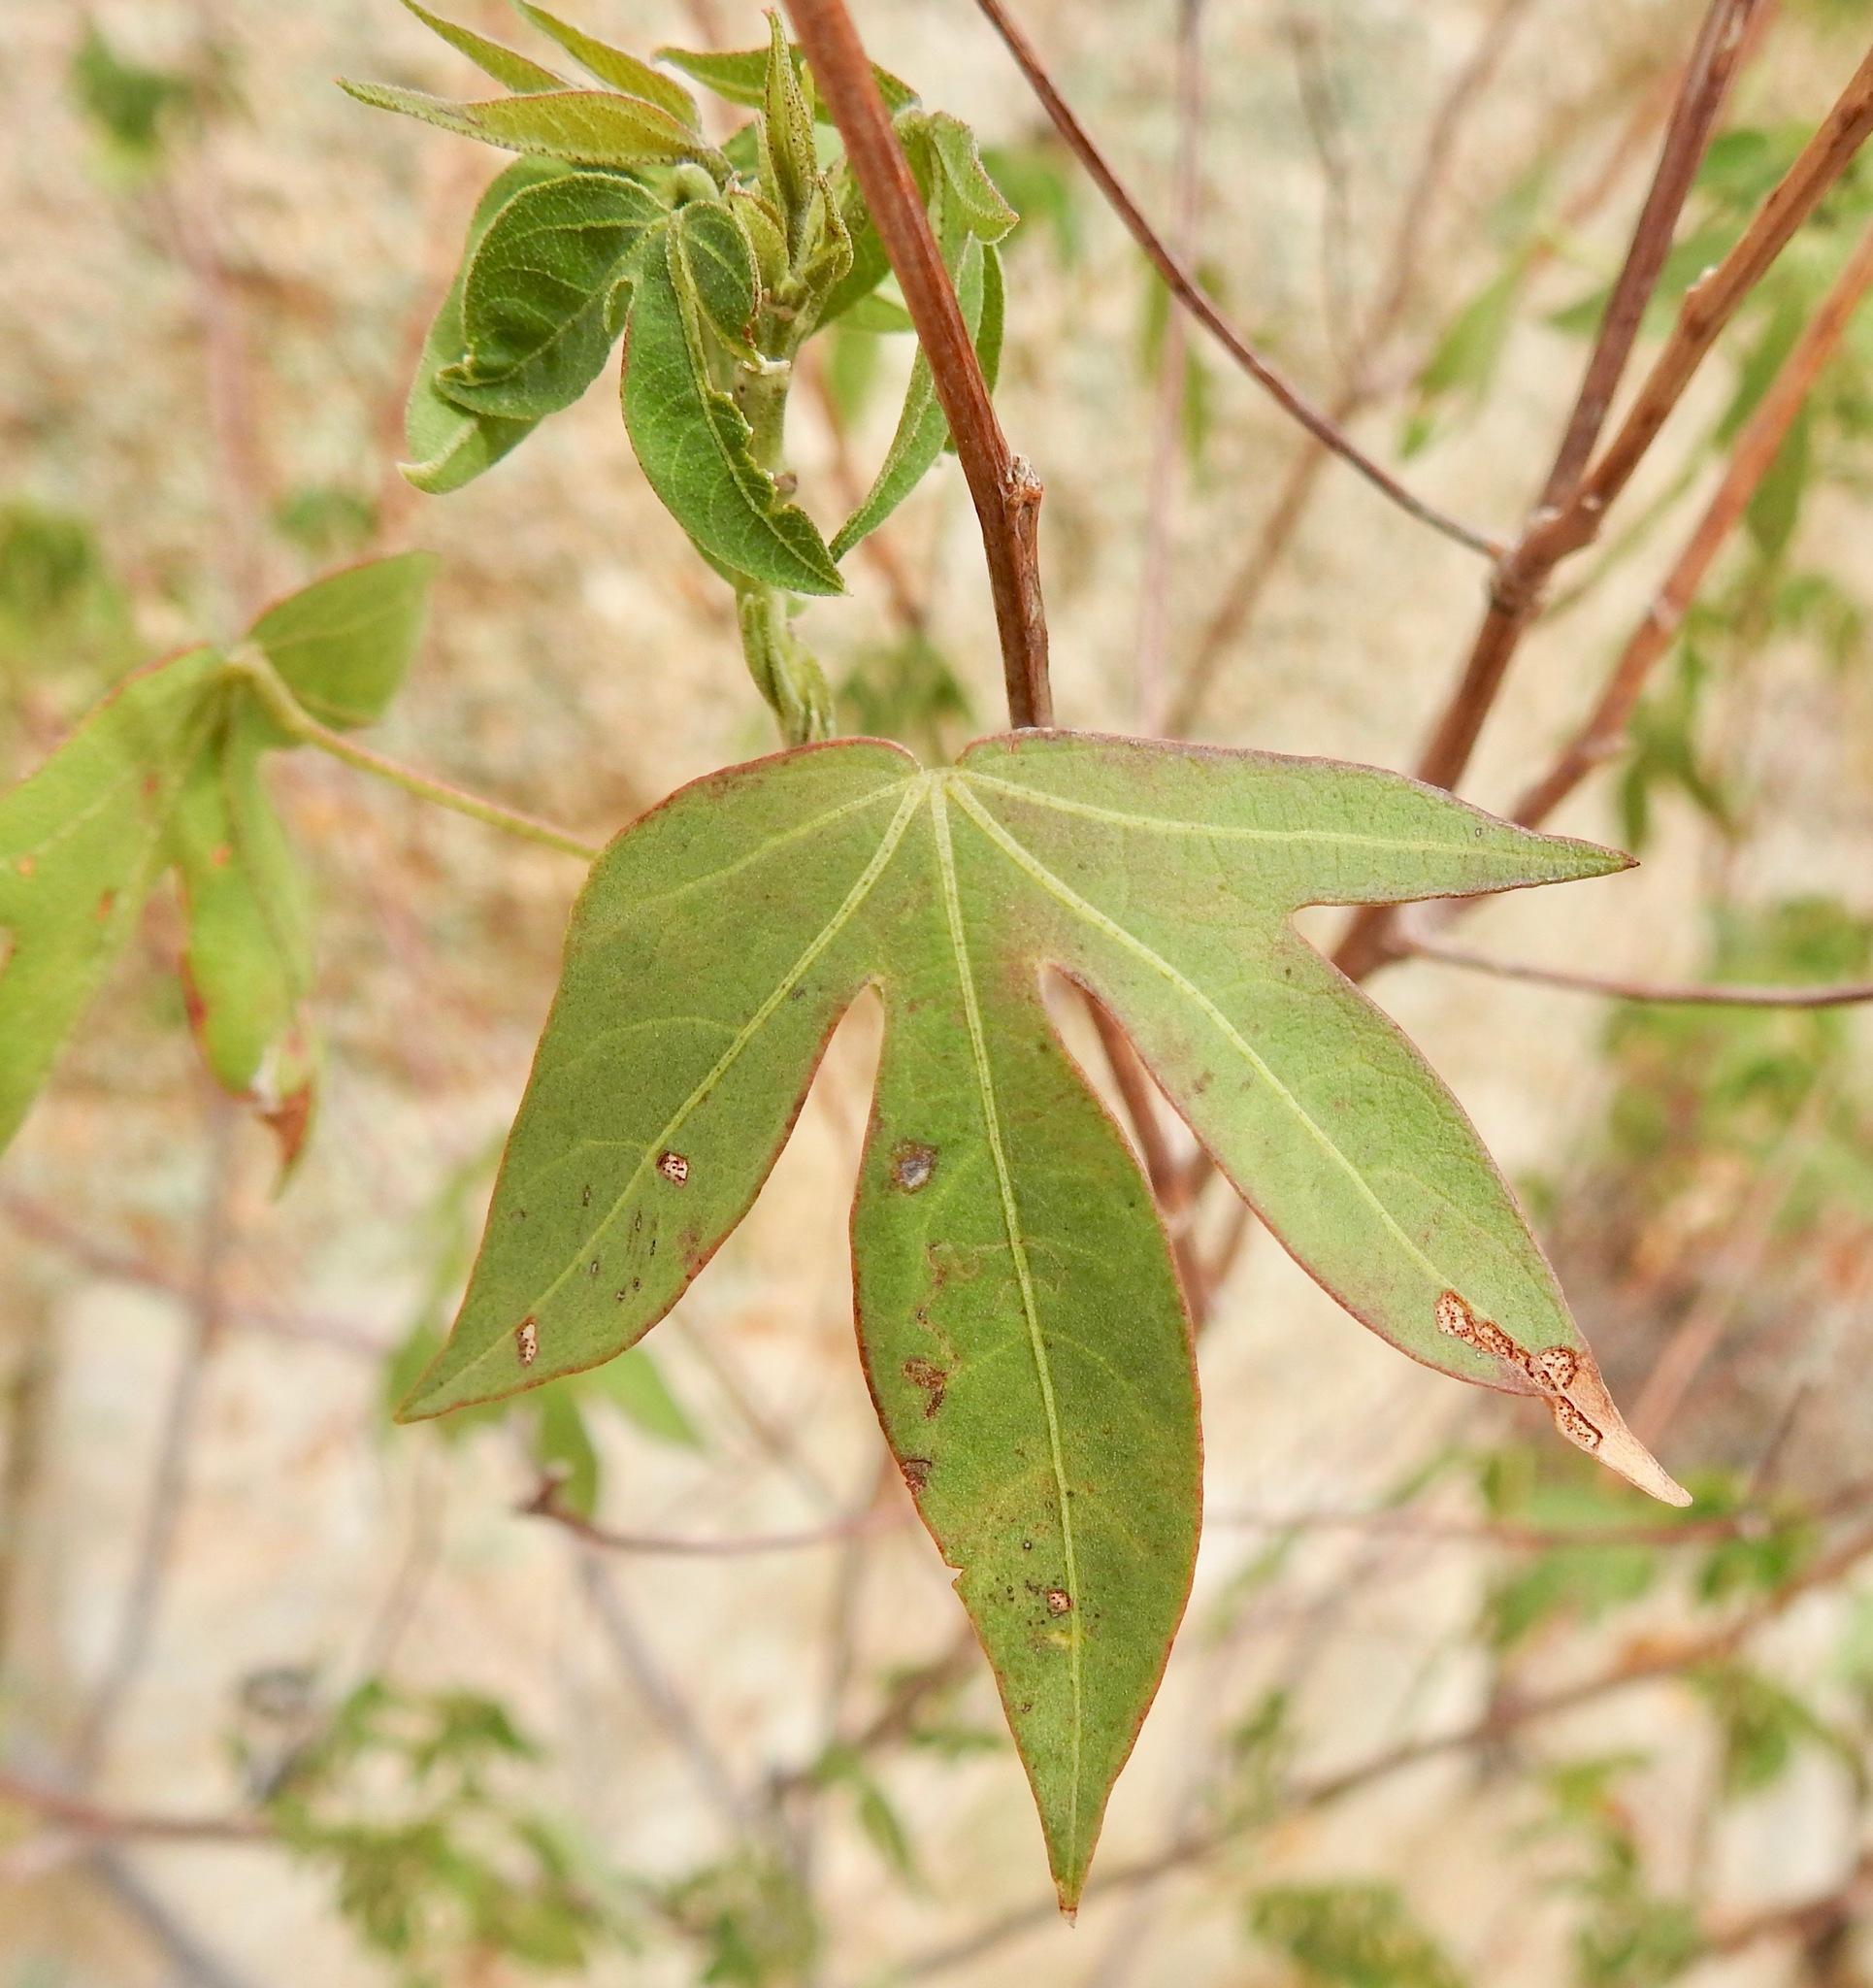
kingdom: Plantae
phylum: Tracheophyta
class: Magnoliopsida
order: Malvales
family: Malvaceae
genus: Gossypium
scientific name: Gossypium thurberi
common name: Desert cotton
